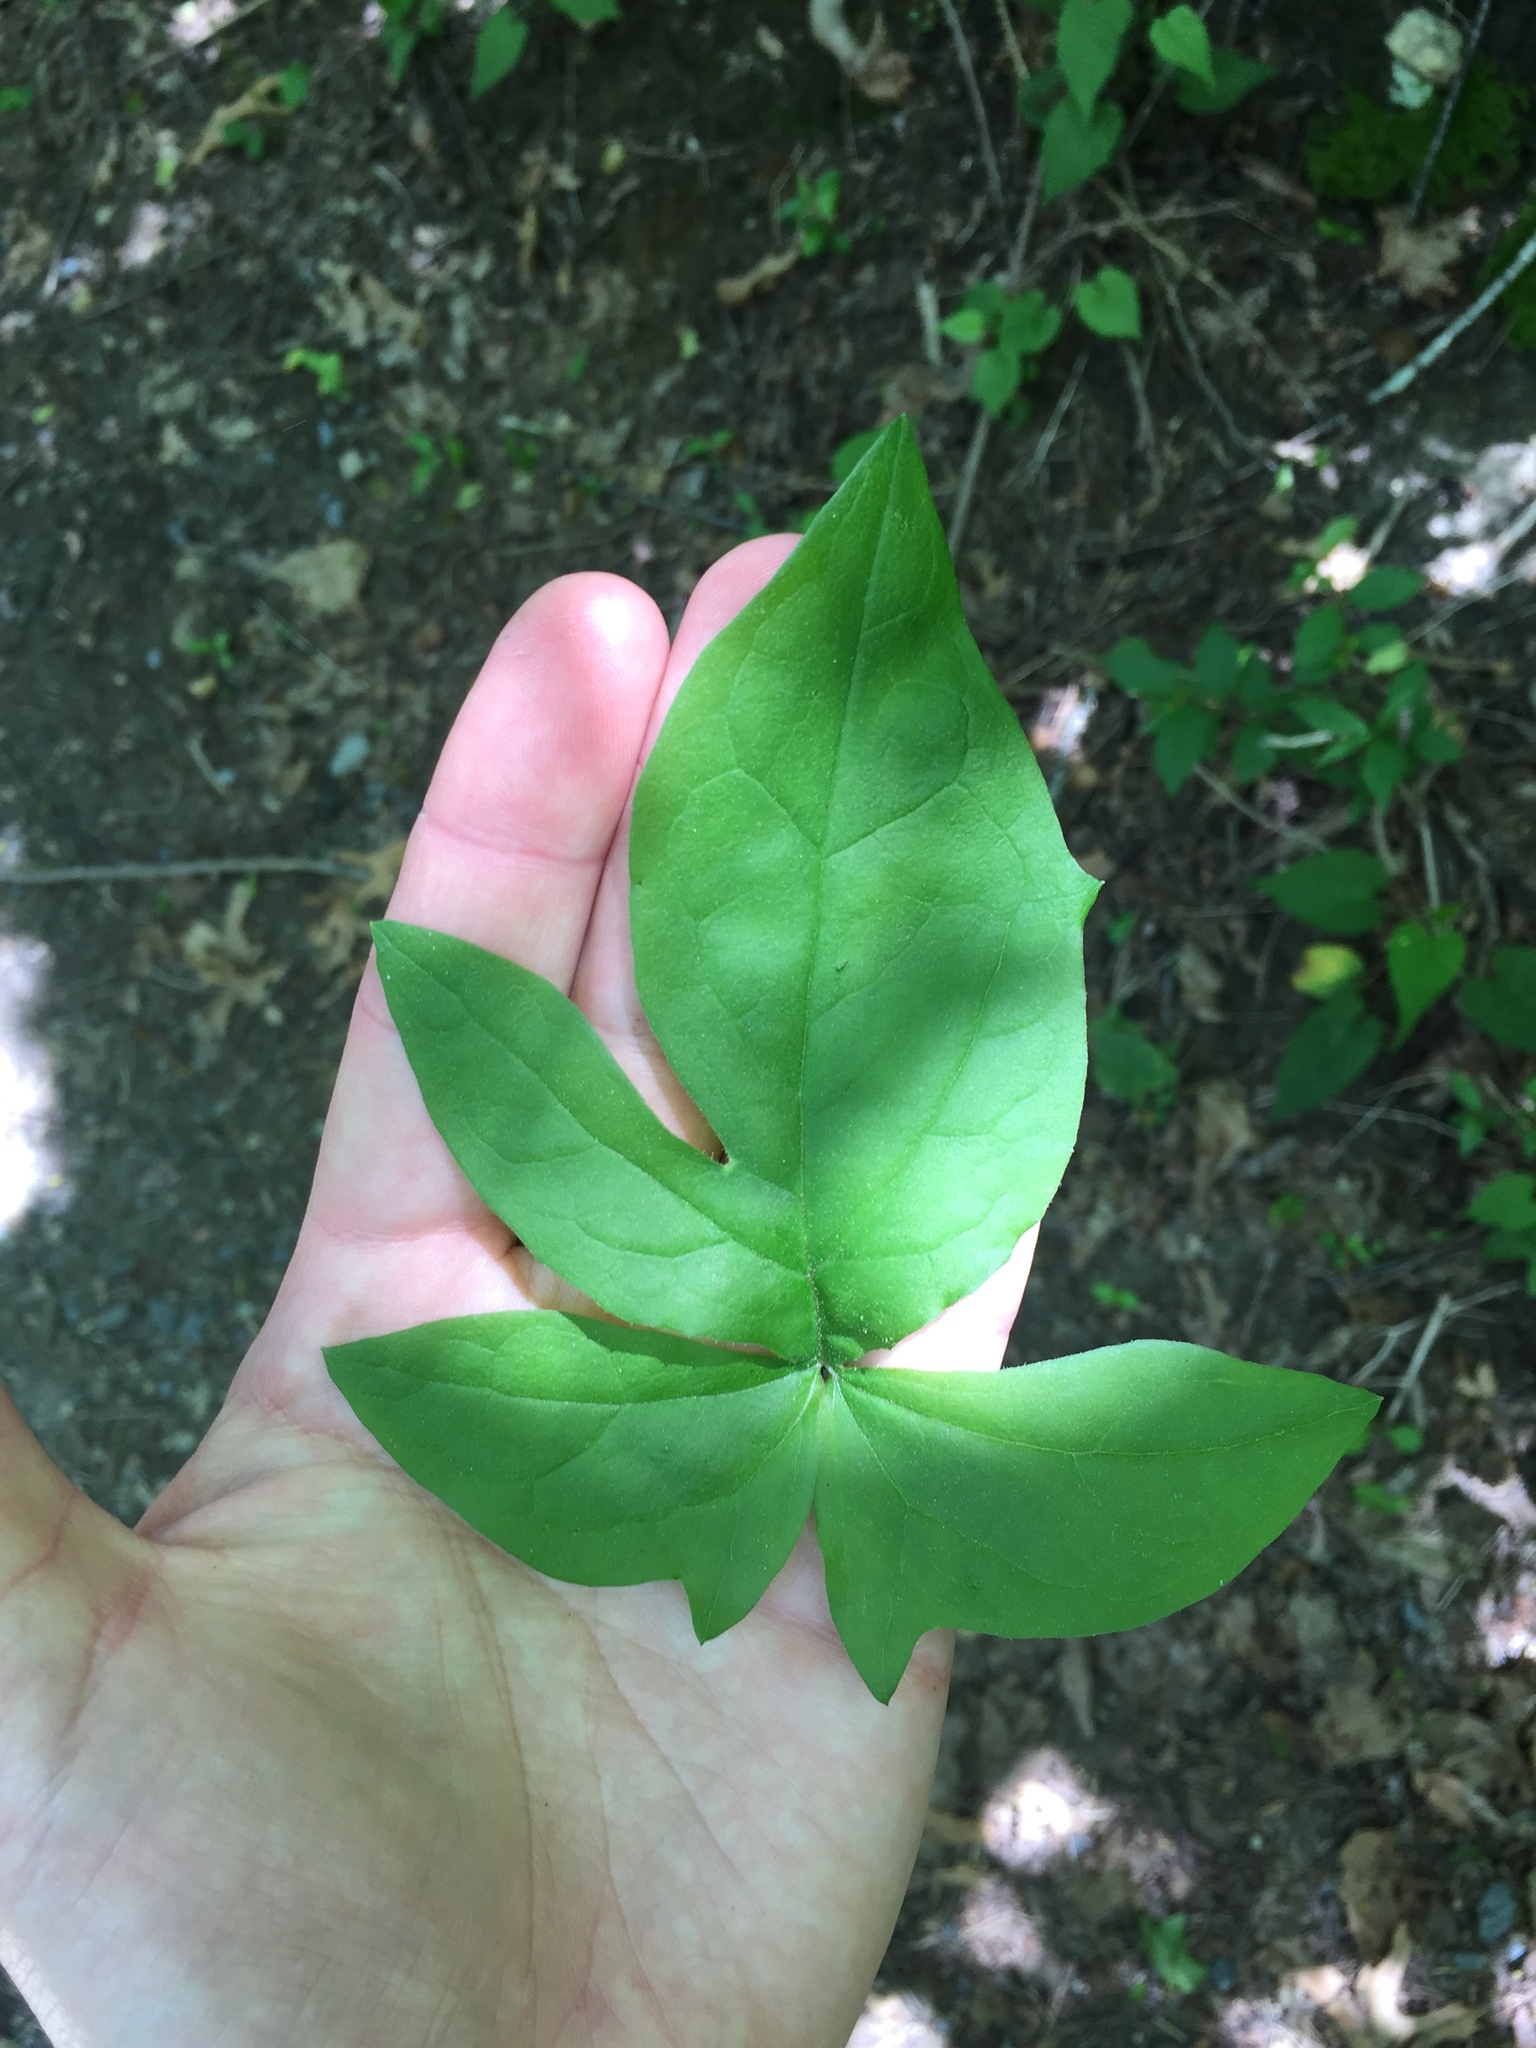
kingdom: Plantae
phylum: Tracheophyta
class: Magnoliopsida
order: Asterales
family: Asteraceae
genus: Nabalus
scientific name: Nabalus trifoliolatus
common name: Gall-of-the-earth
